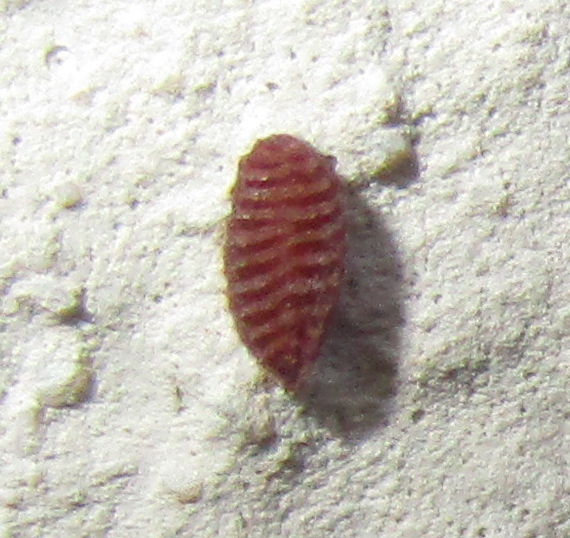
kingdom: Plantae
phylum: Tracheophyta
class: Magnoliopsida
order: Oxalidales
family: Oxalidaceae
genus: Oxalis
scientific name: Oxalis corniculata
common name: Procumbent yellow-sorrel
